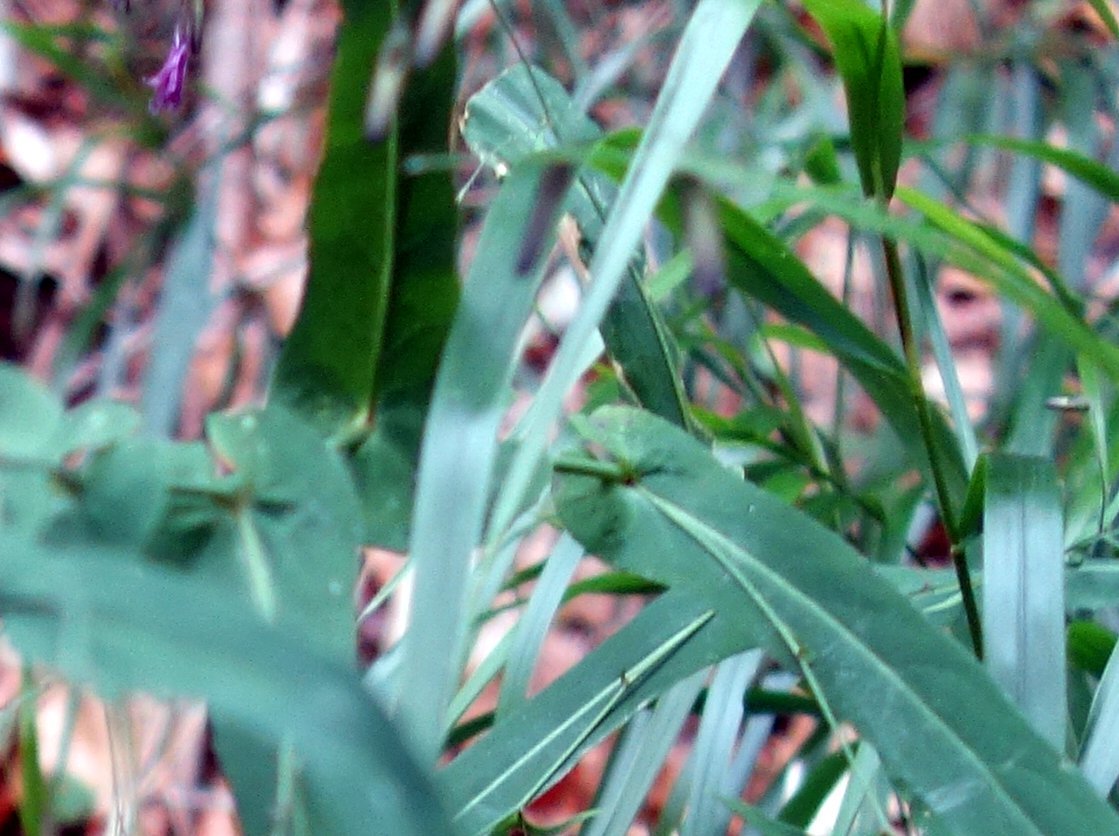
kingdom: Plantae
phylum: Tracheophyta
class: Magnoliopsida
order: Asterales
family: Asteraceae
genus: Prenanthes
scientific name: Prenanthes purpurea
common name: Purple lettuce
